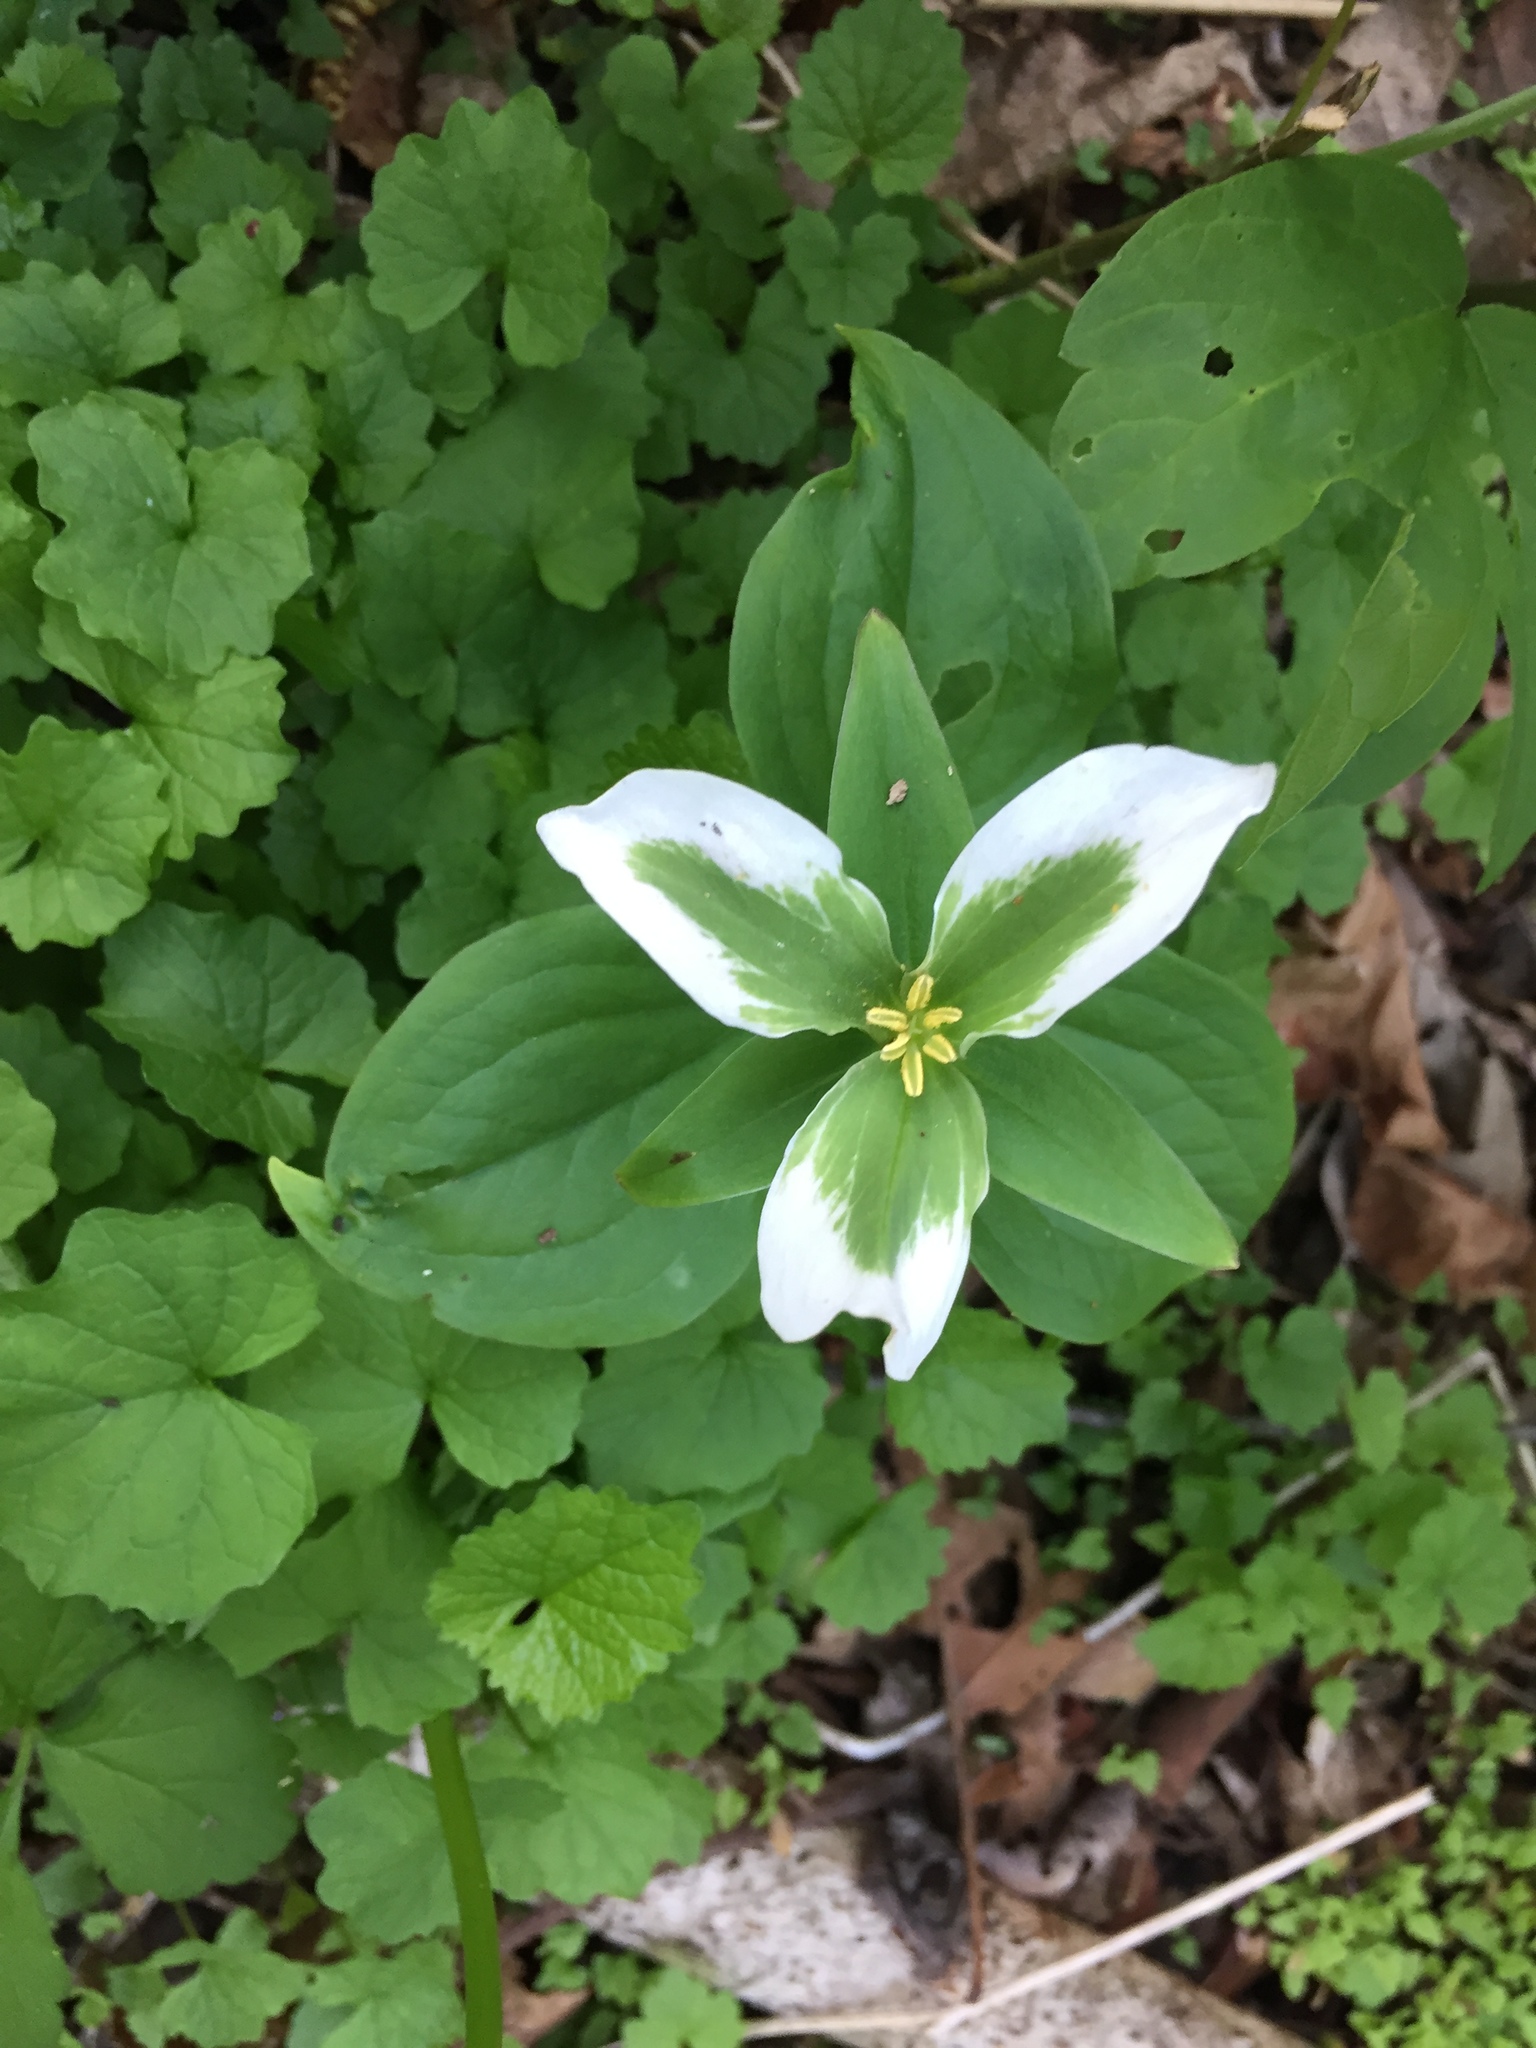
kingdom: Plantae
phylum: Tracheophyta
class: Liliopsida
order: Liliales
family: Melanthiaceae
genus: Trillium
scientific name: Trillium grandiflorum
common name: Great white trillium
